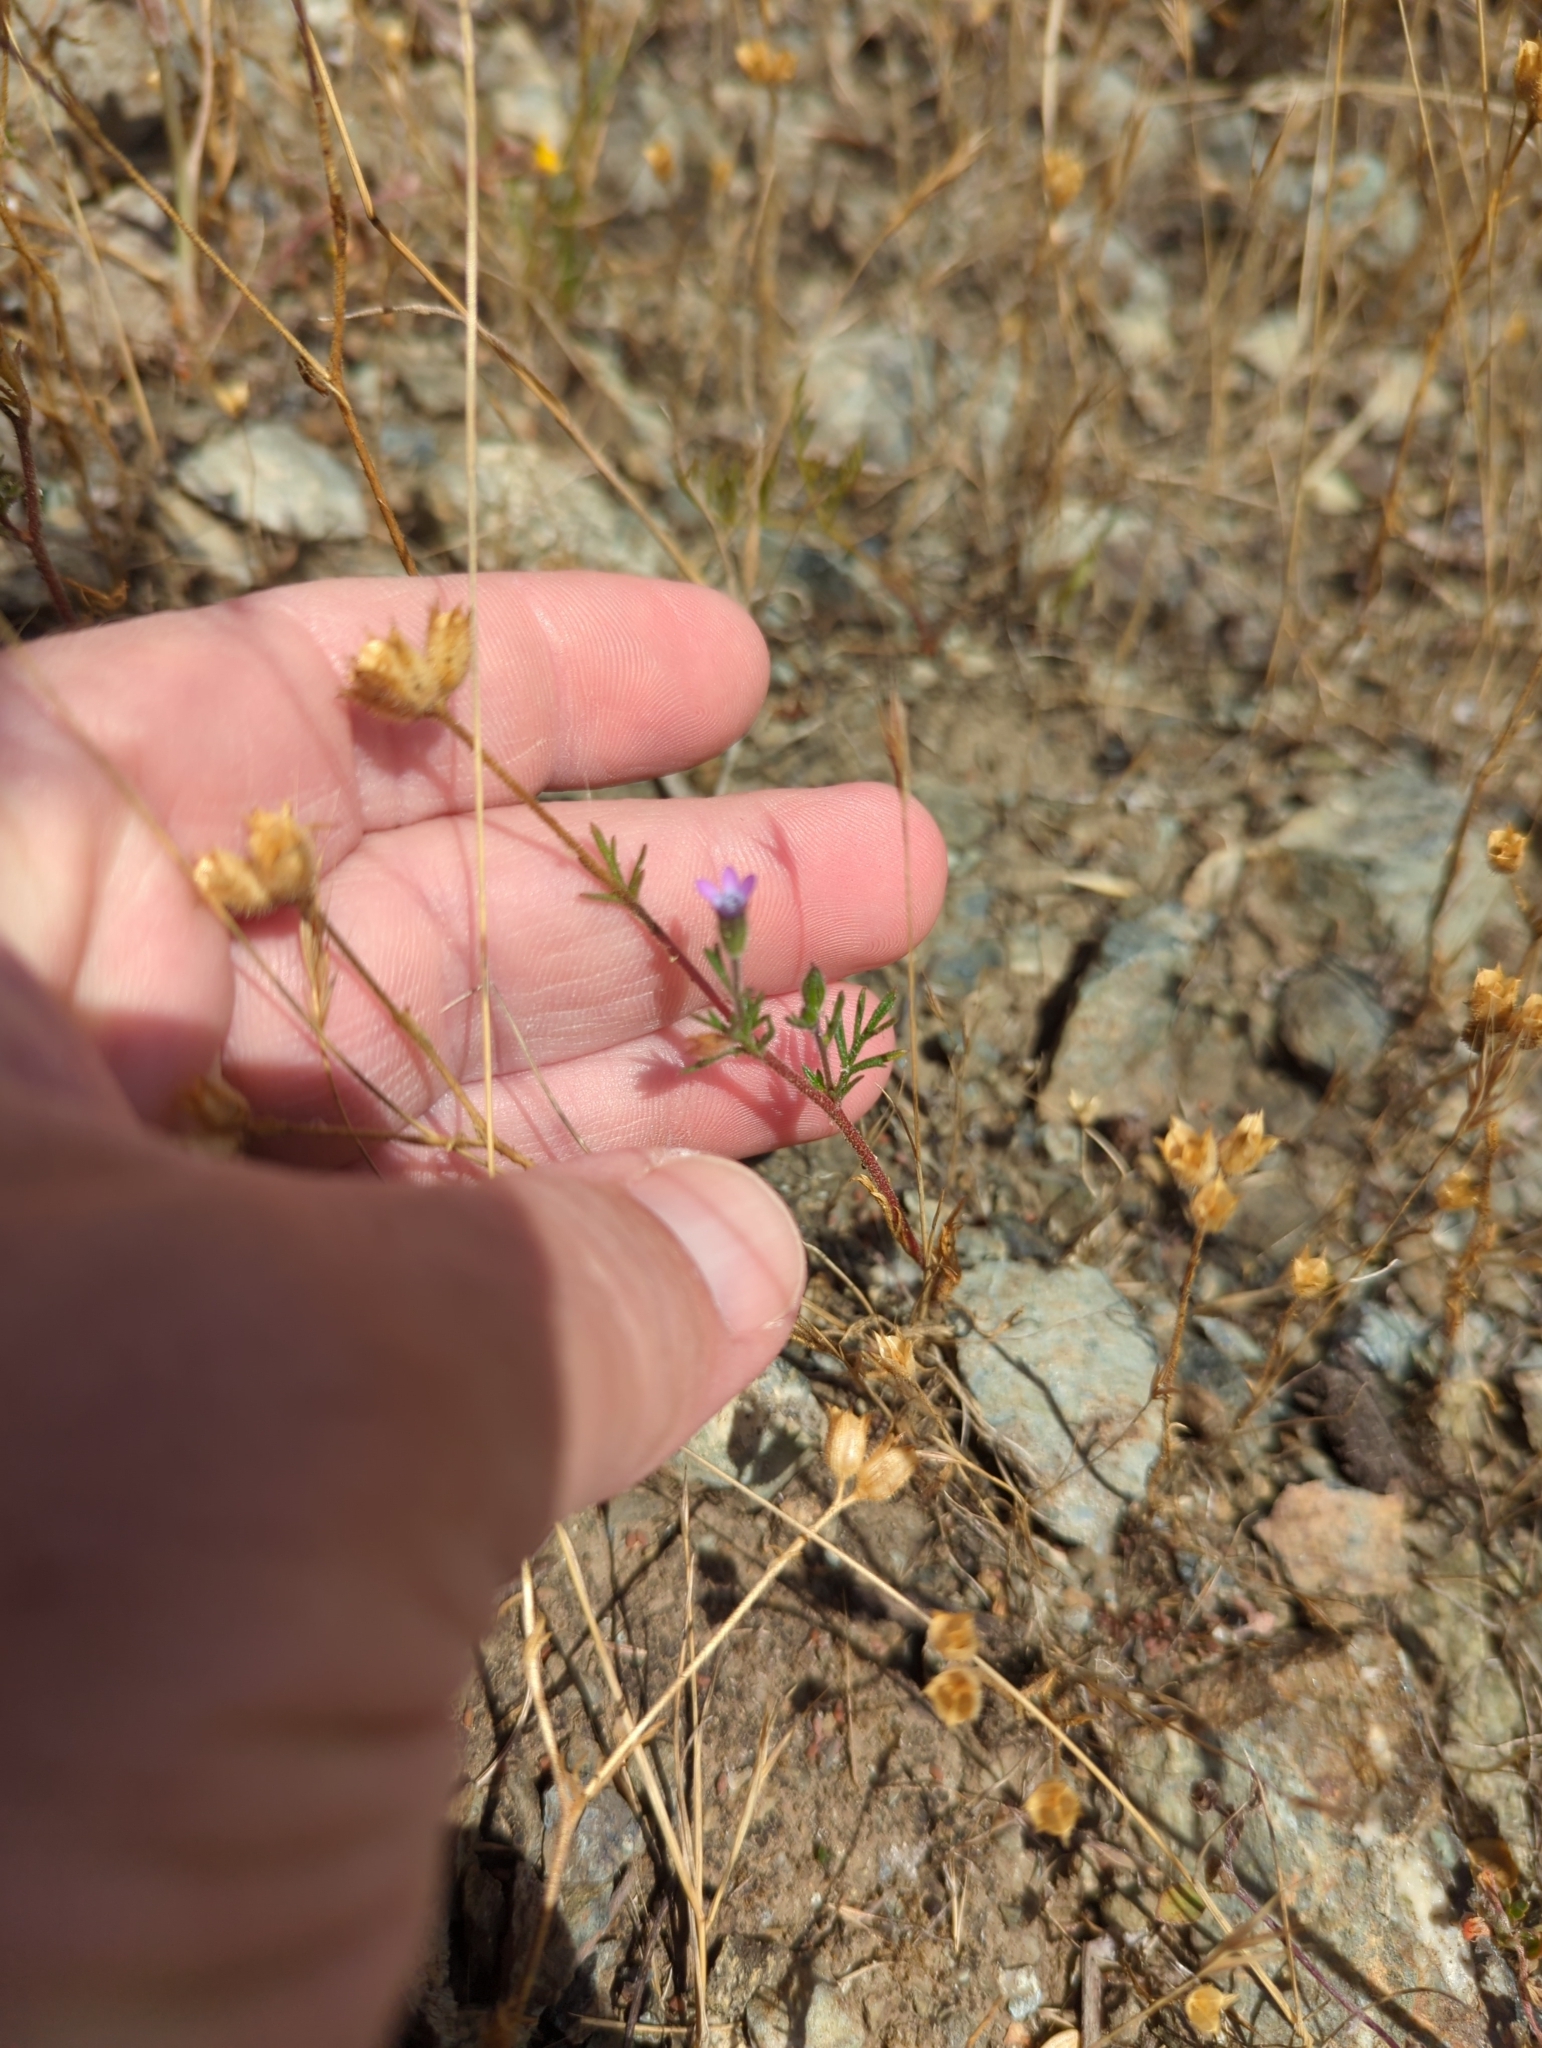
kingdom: Plantae
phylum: Tracheophyta
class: Magnoliopsida
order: Ericales
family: Polemoniaceae
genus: Gilia
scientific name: Gilia clivorum
